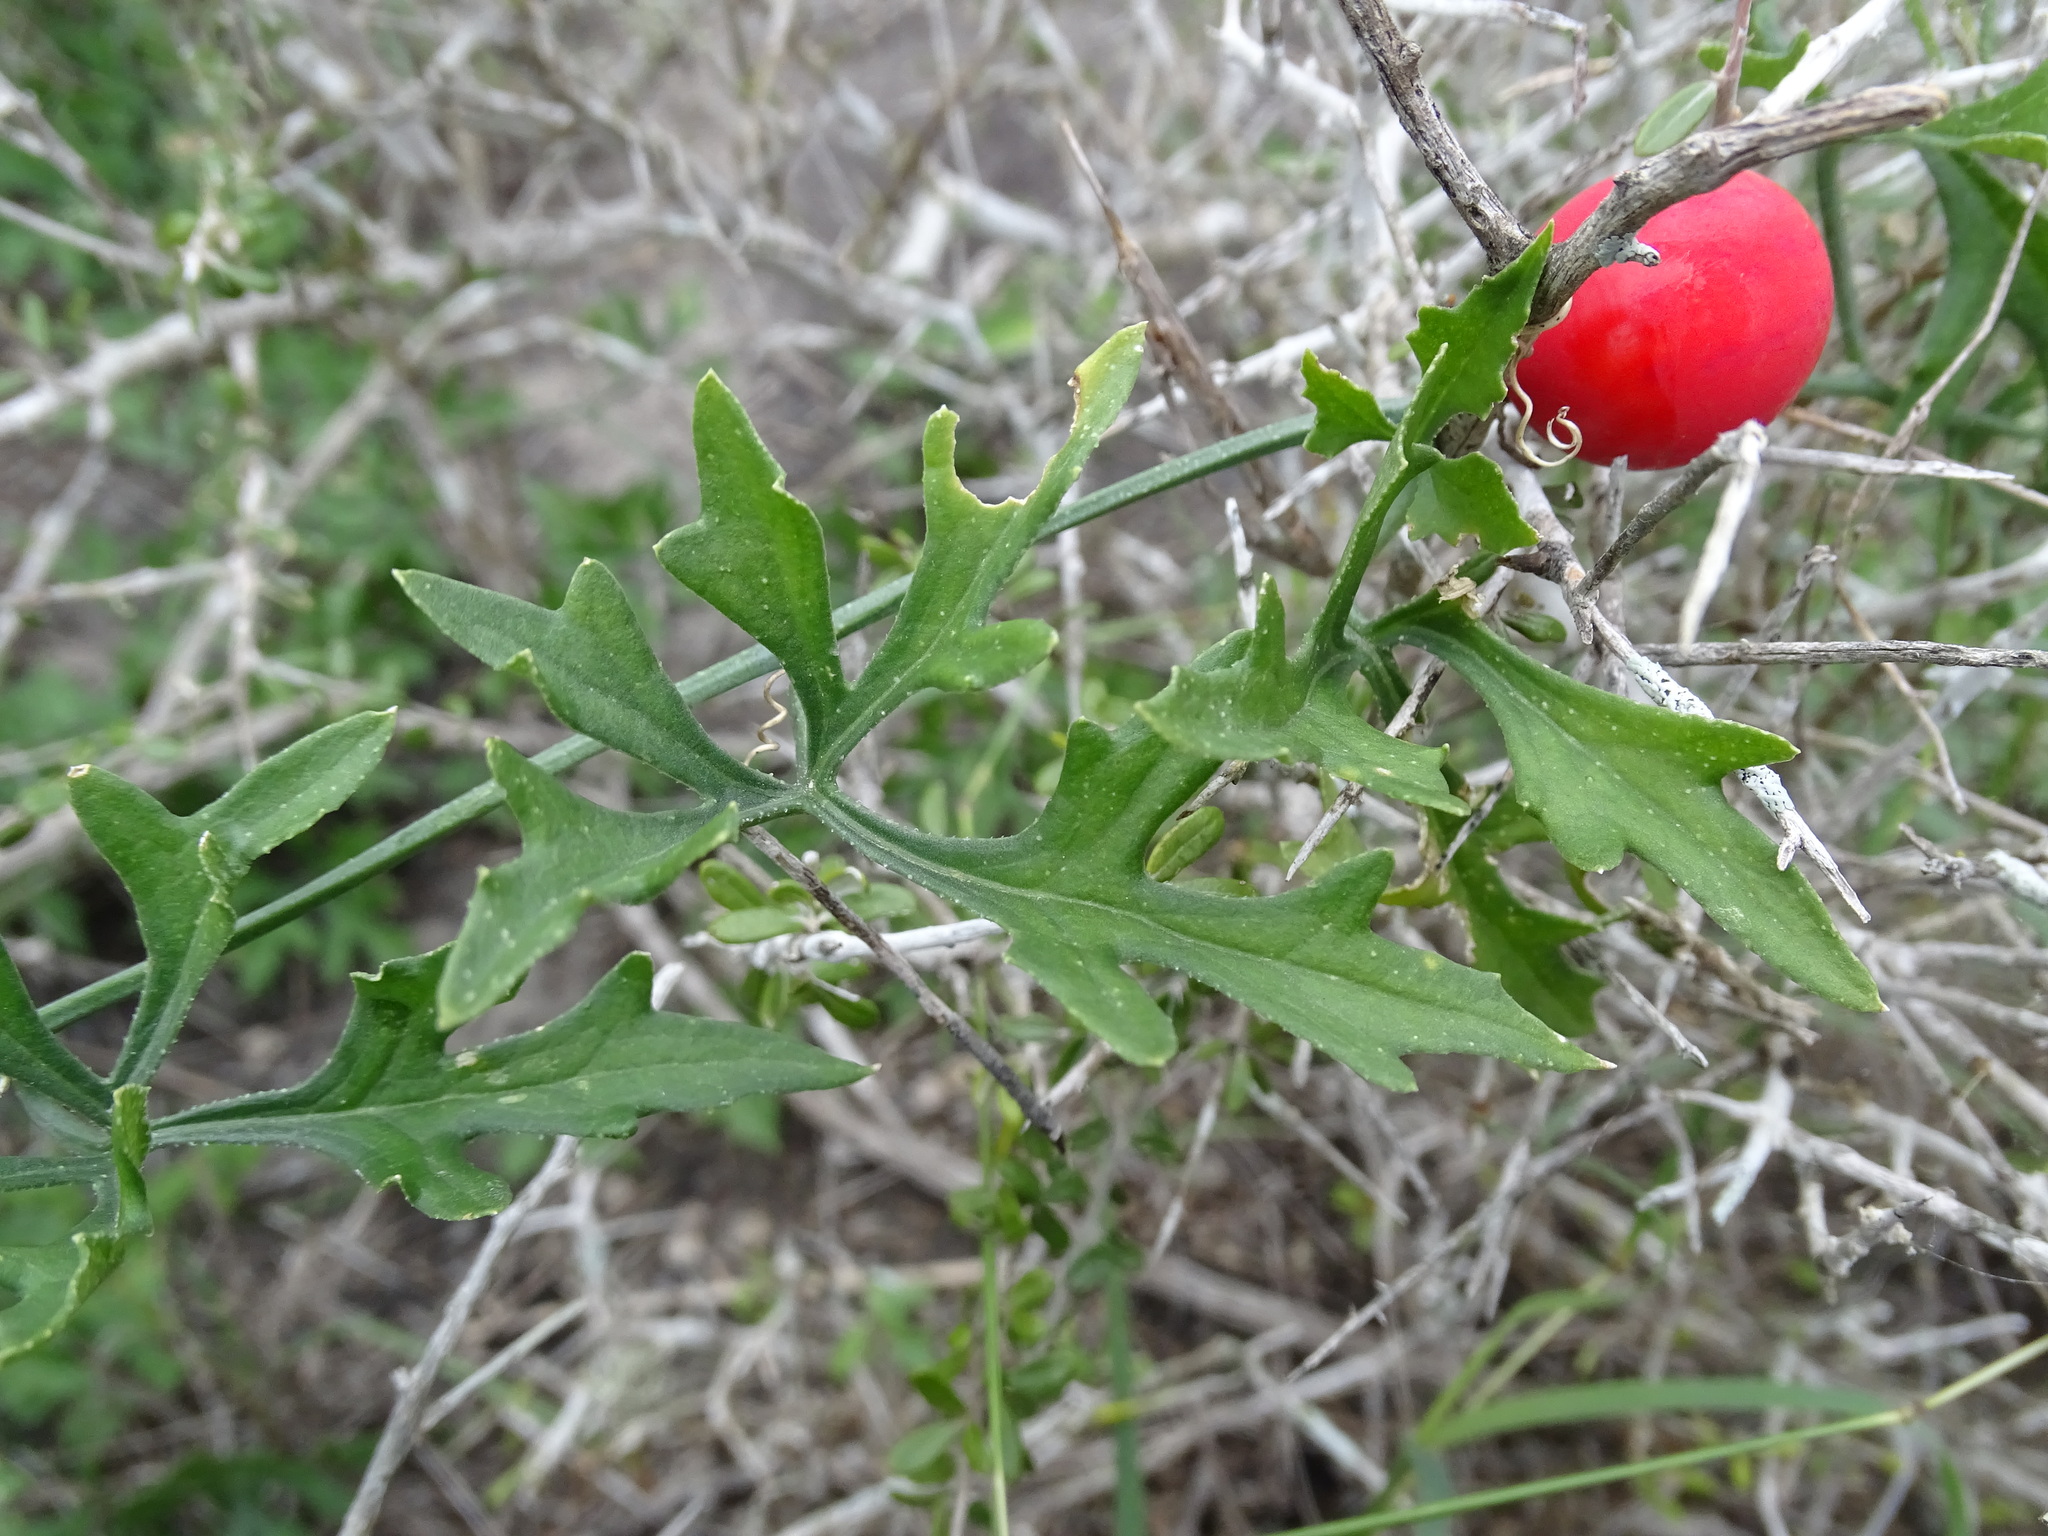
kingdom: Plantae
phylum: Tracheophyta
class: Magnoliopsida
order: Cucurbitales
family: Cucurbitaceae
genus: Ibervillea
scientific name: Ibervillea tenuisecta
